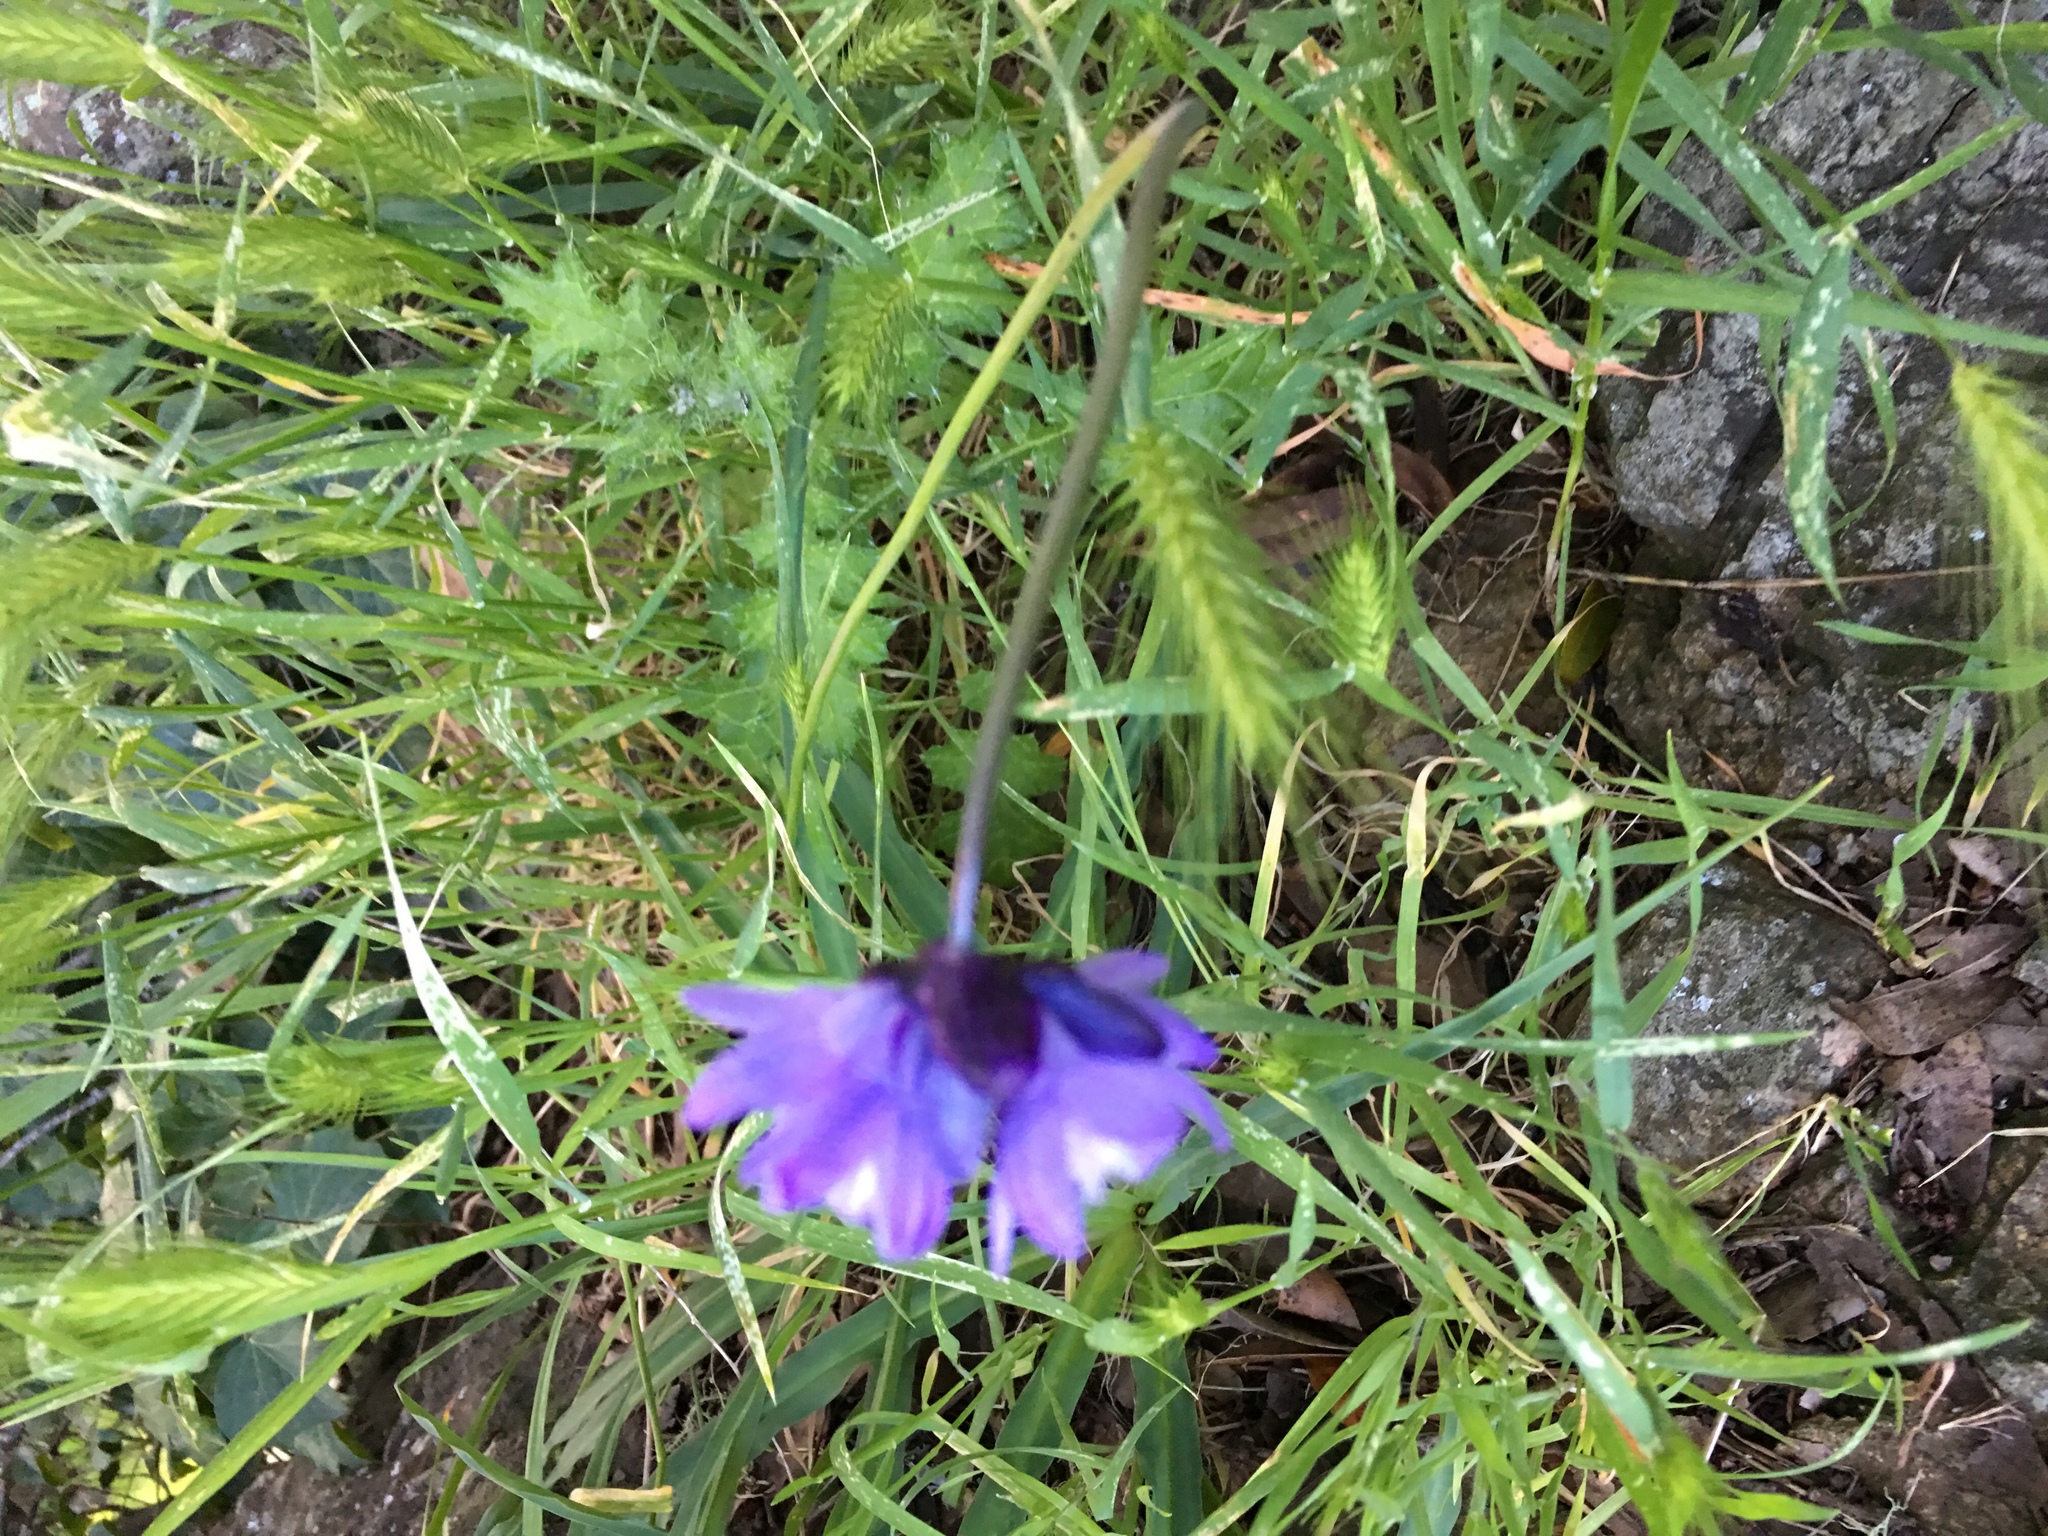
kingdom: Plantae
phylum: Tracheophyta
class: Liliopsida
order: Asparagales
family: Asparagaceae
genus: Dipterostemon
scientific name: Dipterostemon capitatus
